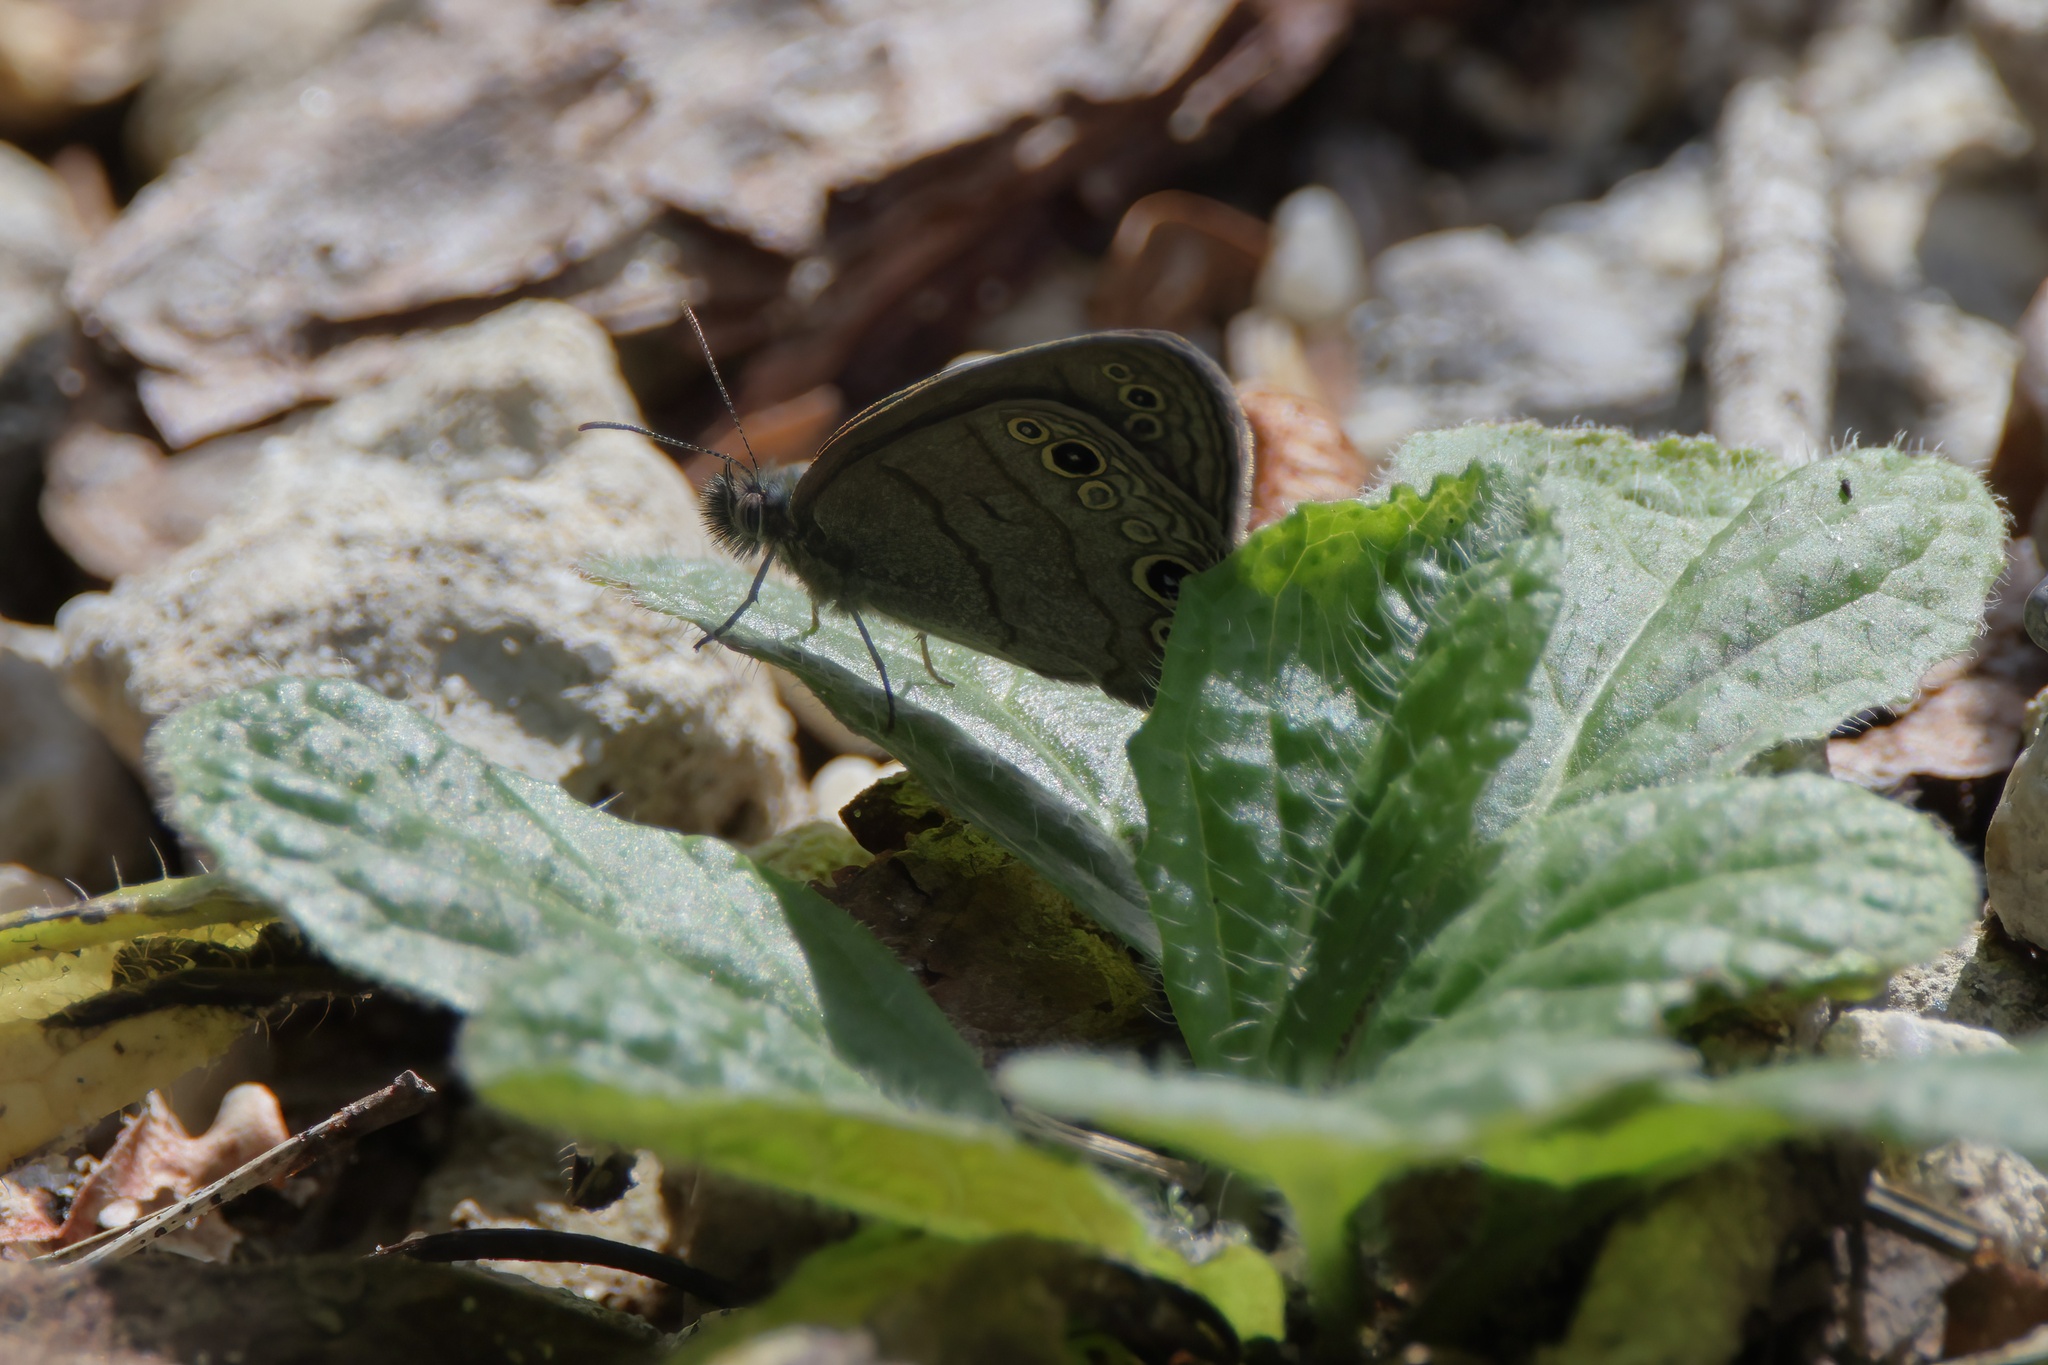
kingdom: Animalia
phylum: Arthropoda
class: Insecta
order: Lepidoptera
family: Nymphalidae
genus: Hermeuptychia
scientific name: Hermeuptychia intricata
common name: Intricate satyr
